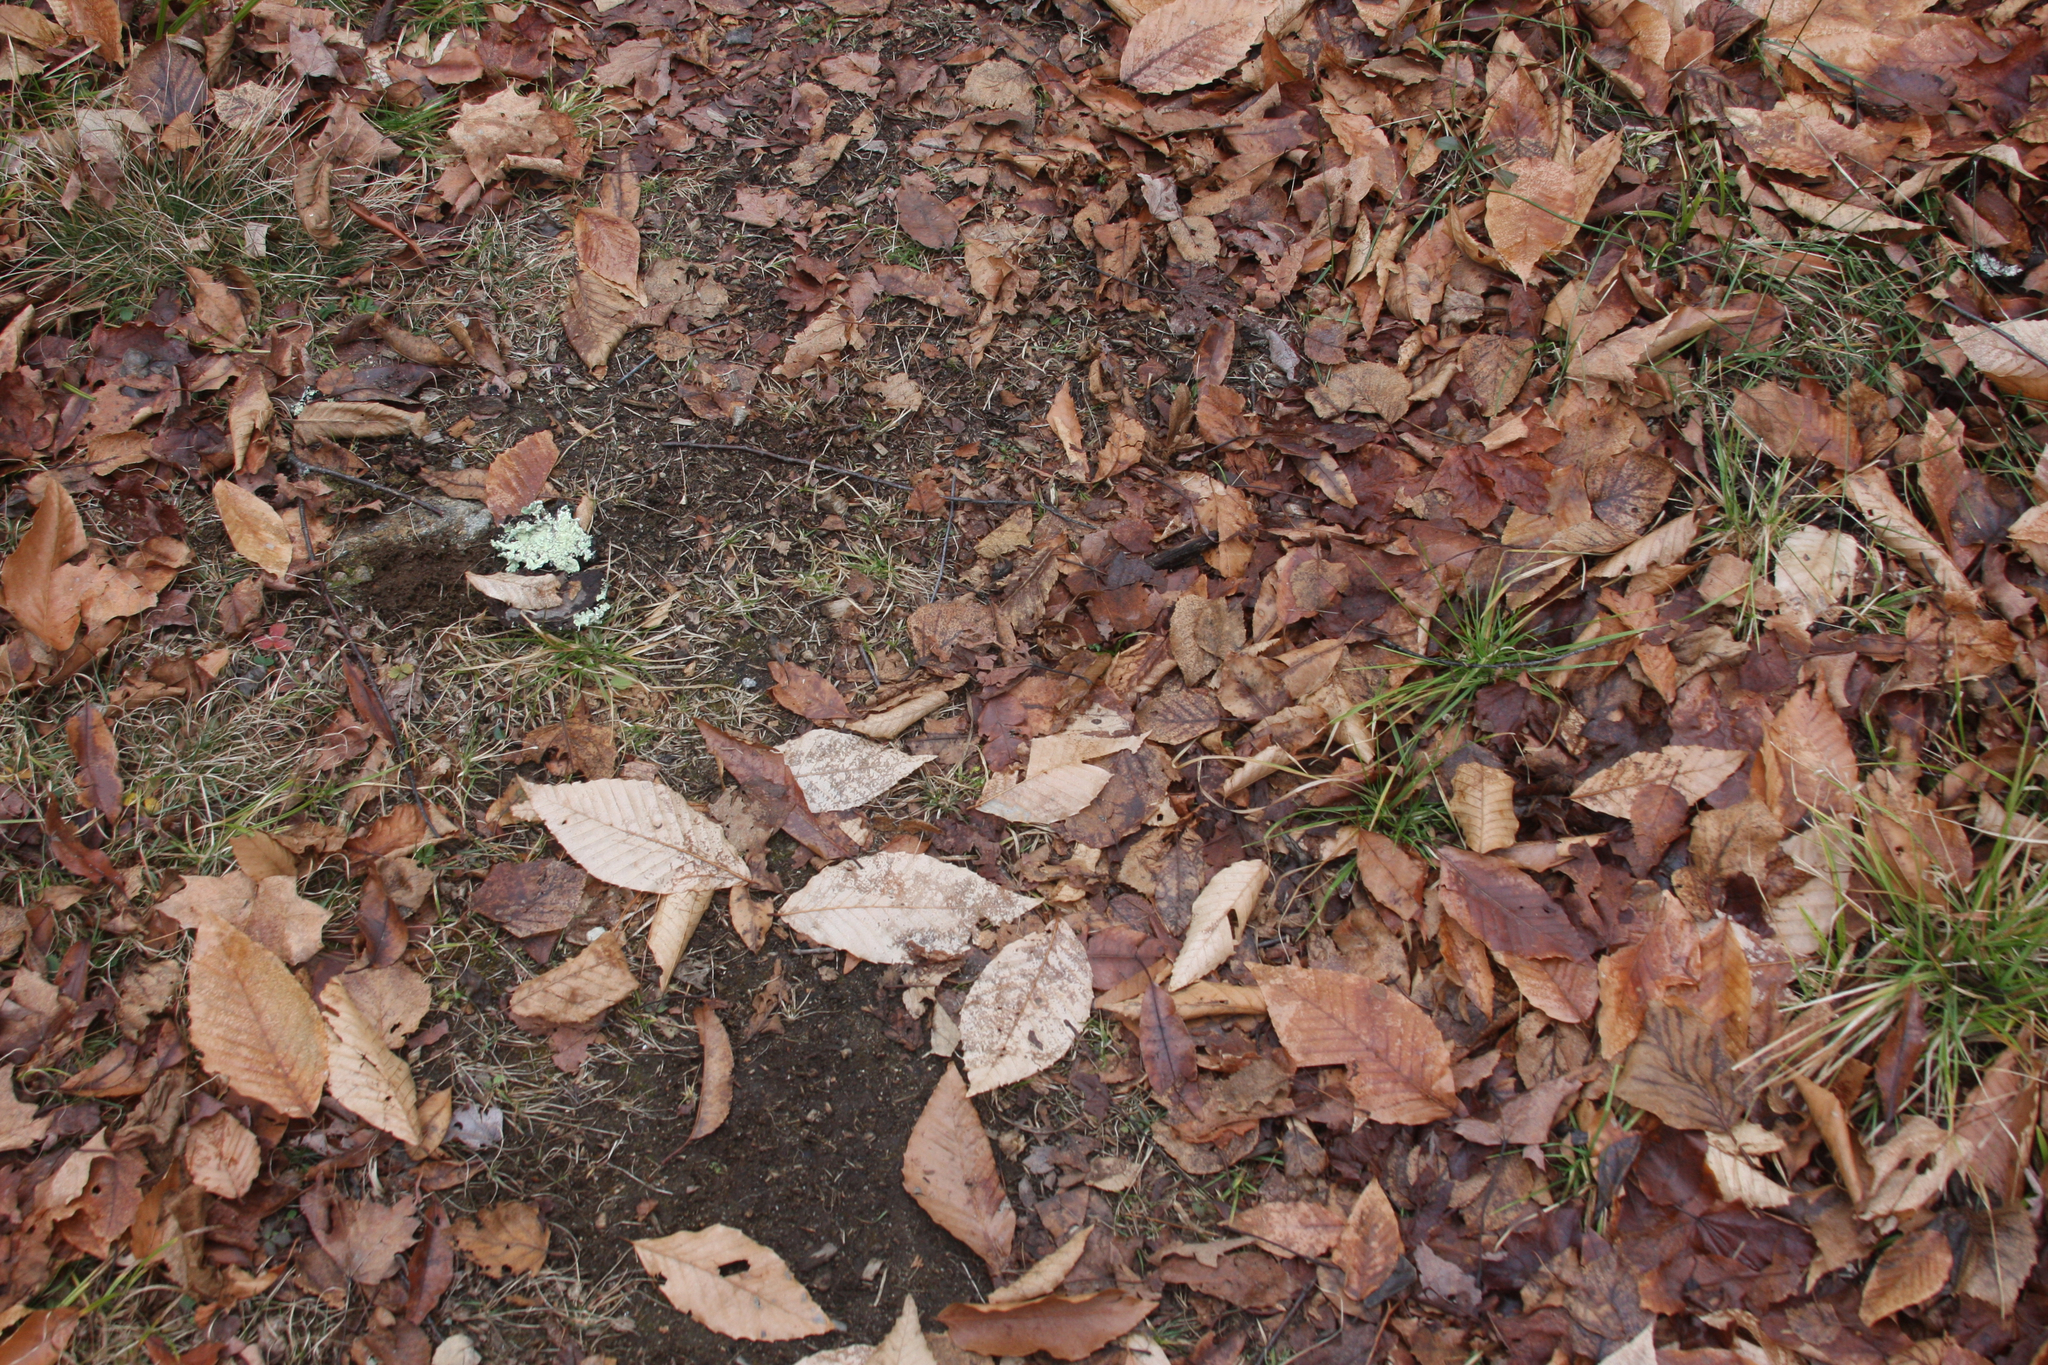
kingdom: Plantae
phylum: Tracheophyta
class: Magnoliopsida
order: Fagales
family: Fagaceae
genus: Fagus
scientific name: Fagus grandifolia
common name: American beech
